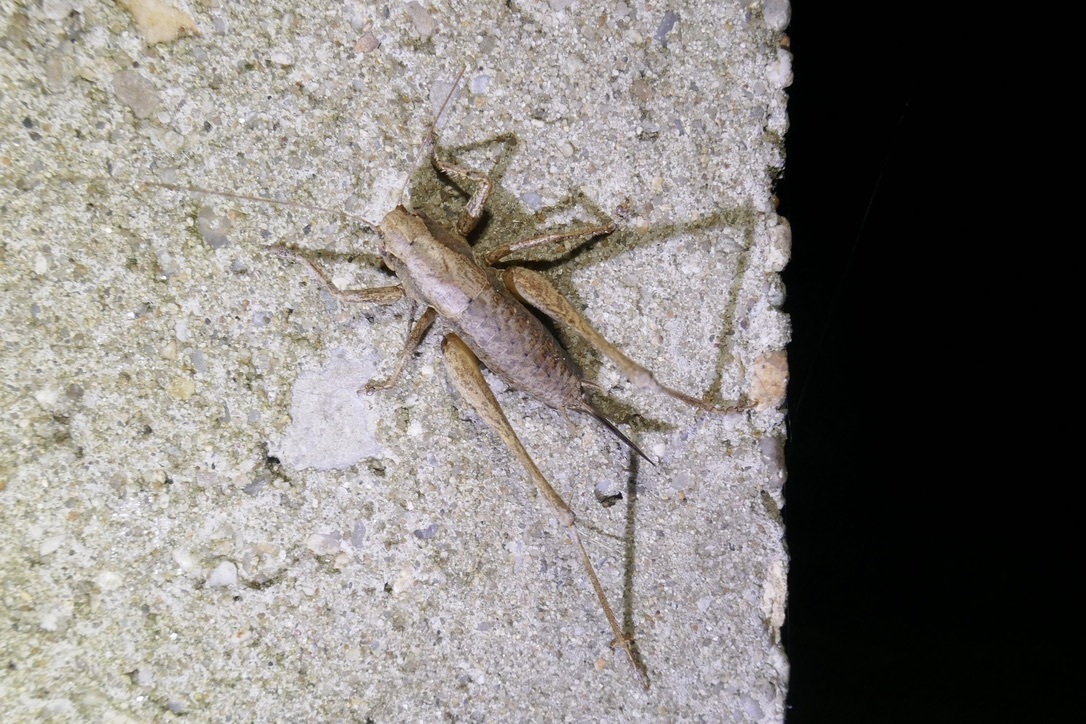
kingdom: Animalia
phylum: Arthropoda
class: Insecta
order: Orthoptera
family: Tettigoniidae
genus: Pholidoptera
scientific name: Pholidoptera griseoaptera
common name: Dark bush-cricket
